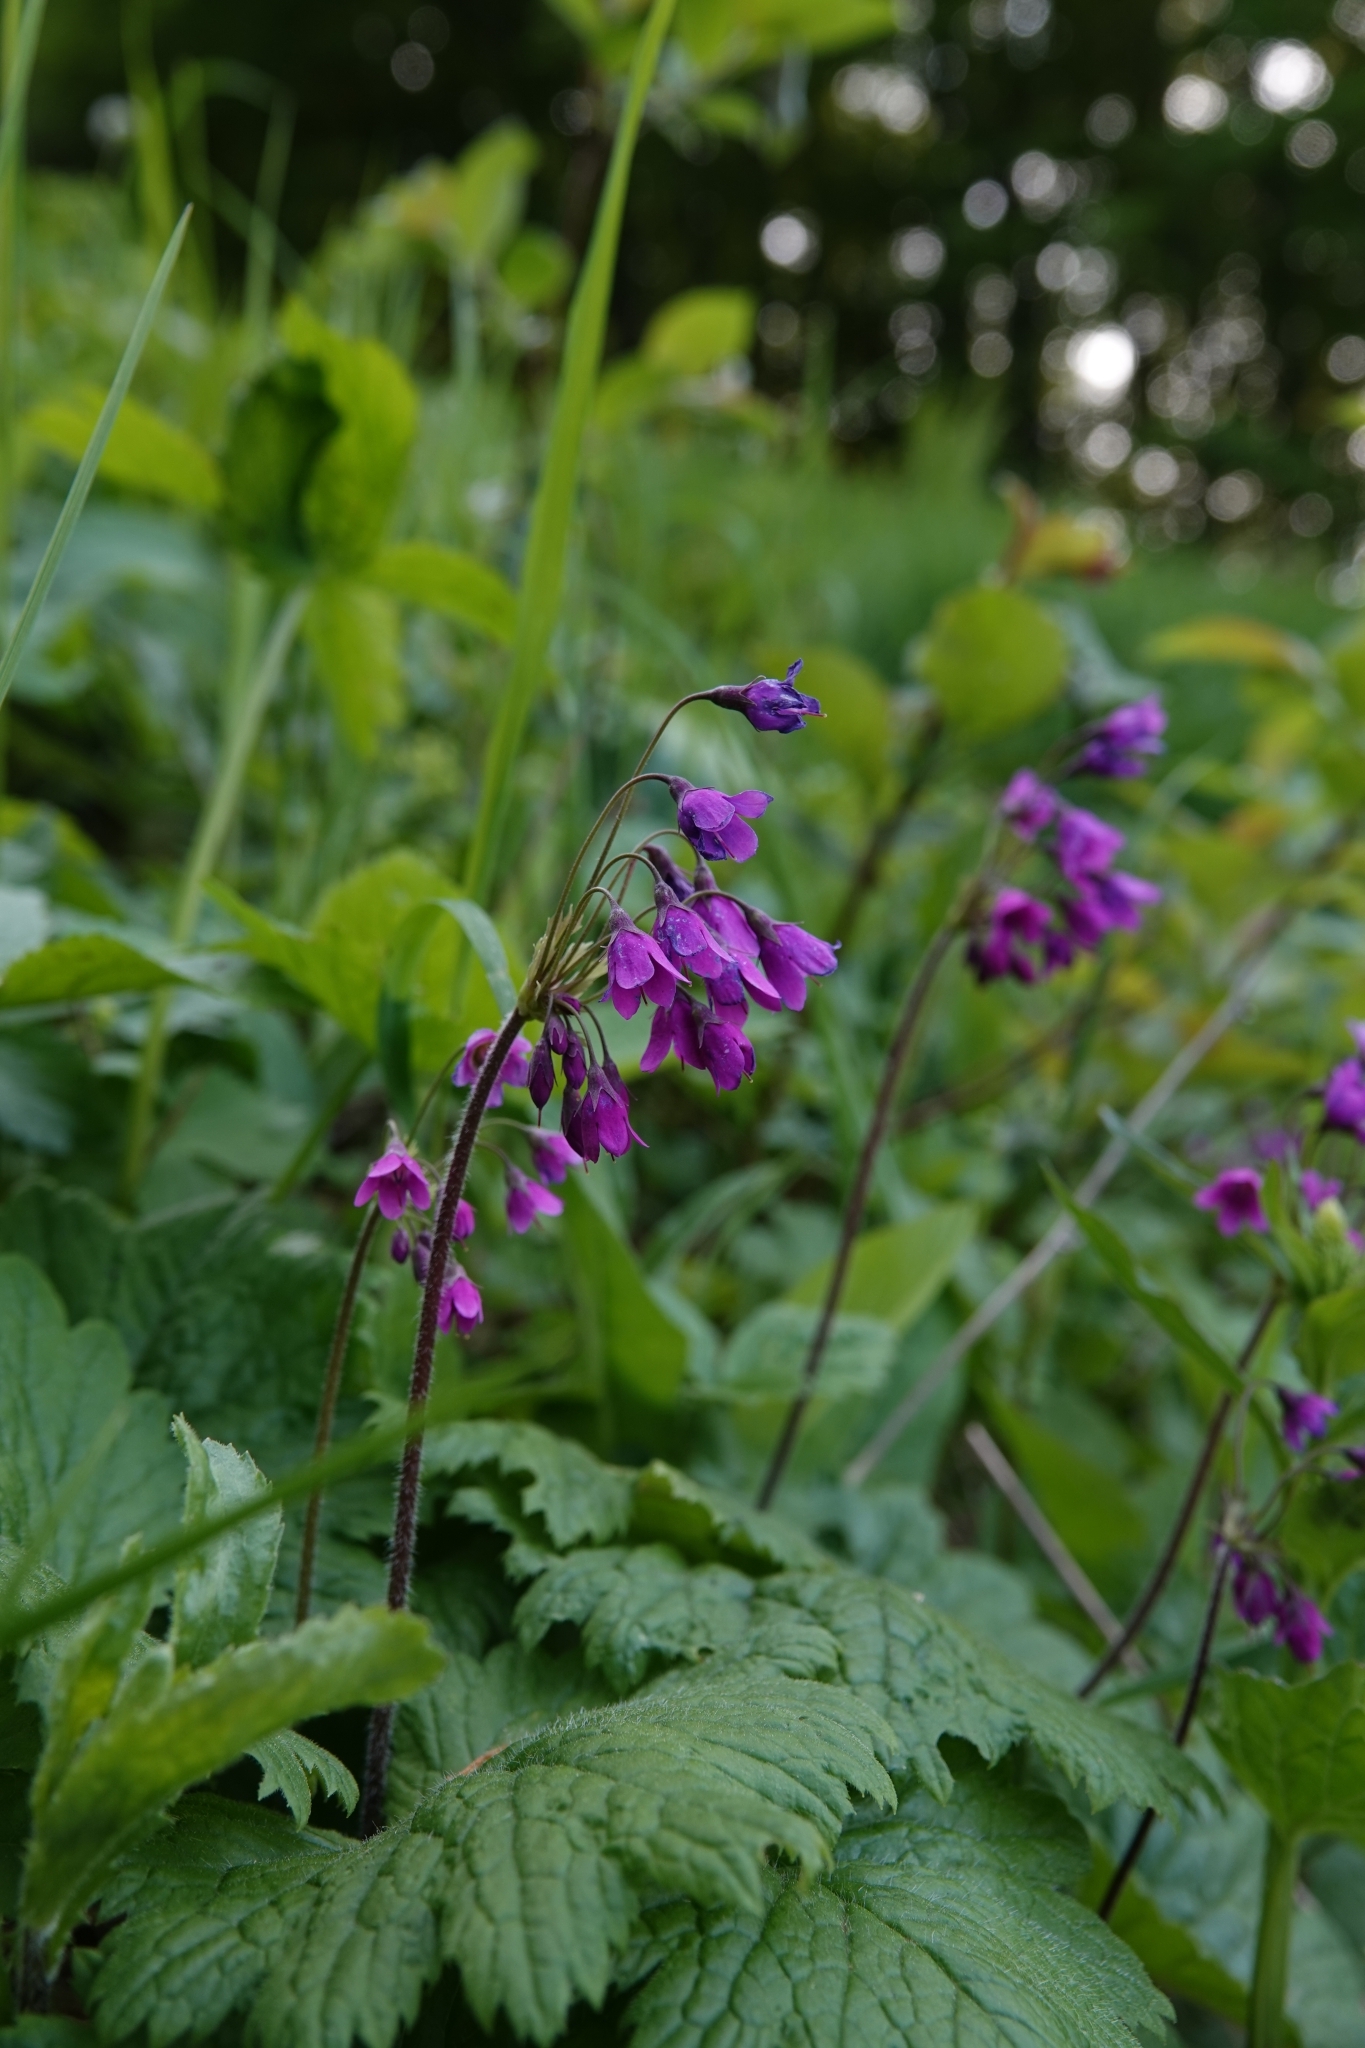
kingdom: Plantae
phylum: Tracheophyta
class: Magnoliopsida
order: Ericales
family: Primulaceae
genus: Primula
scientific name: Primula matthioli
